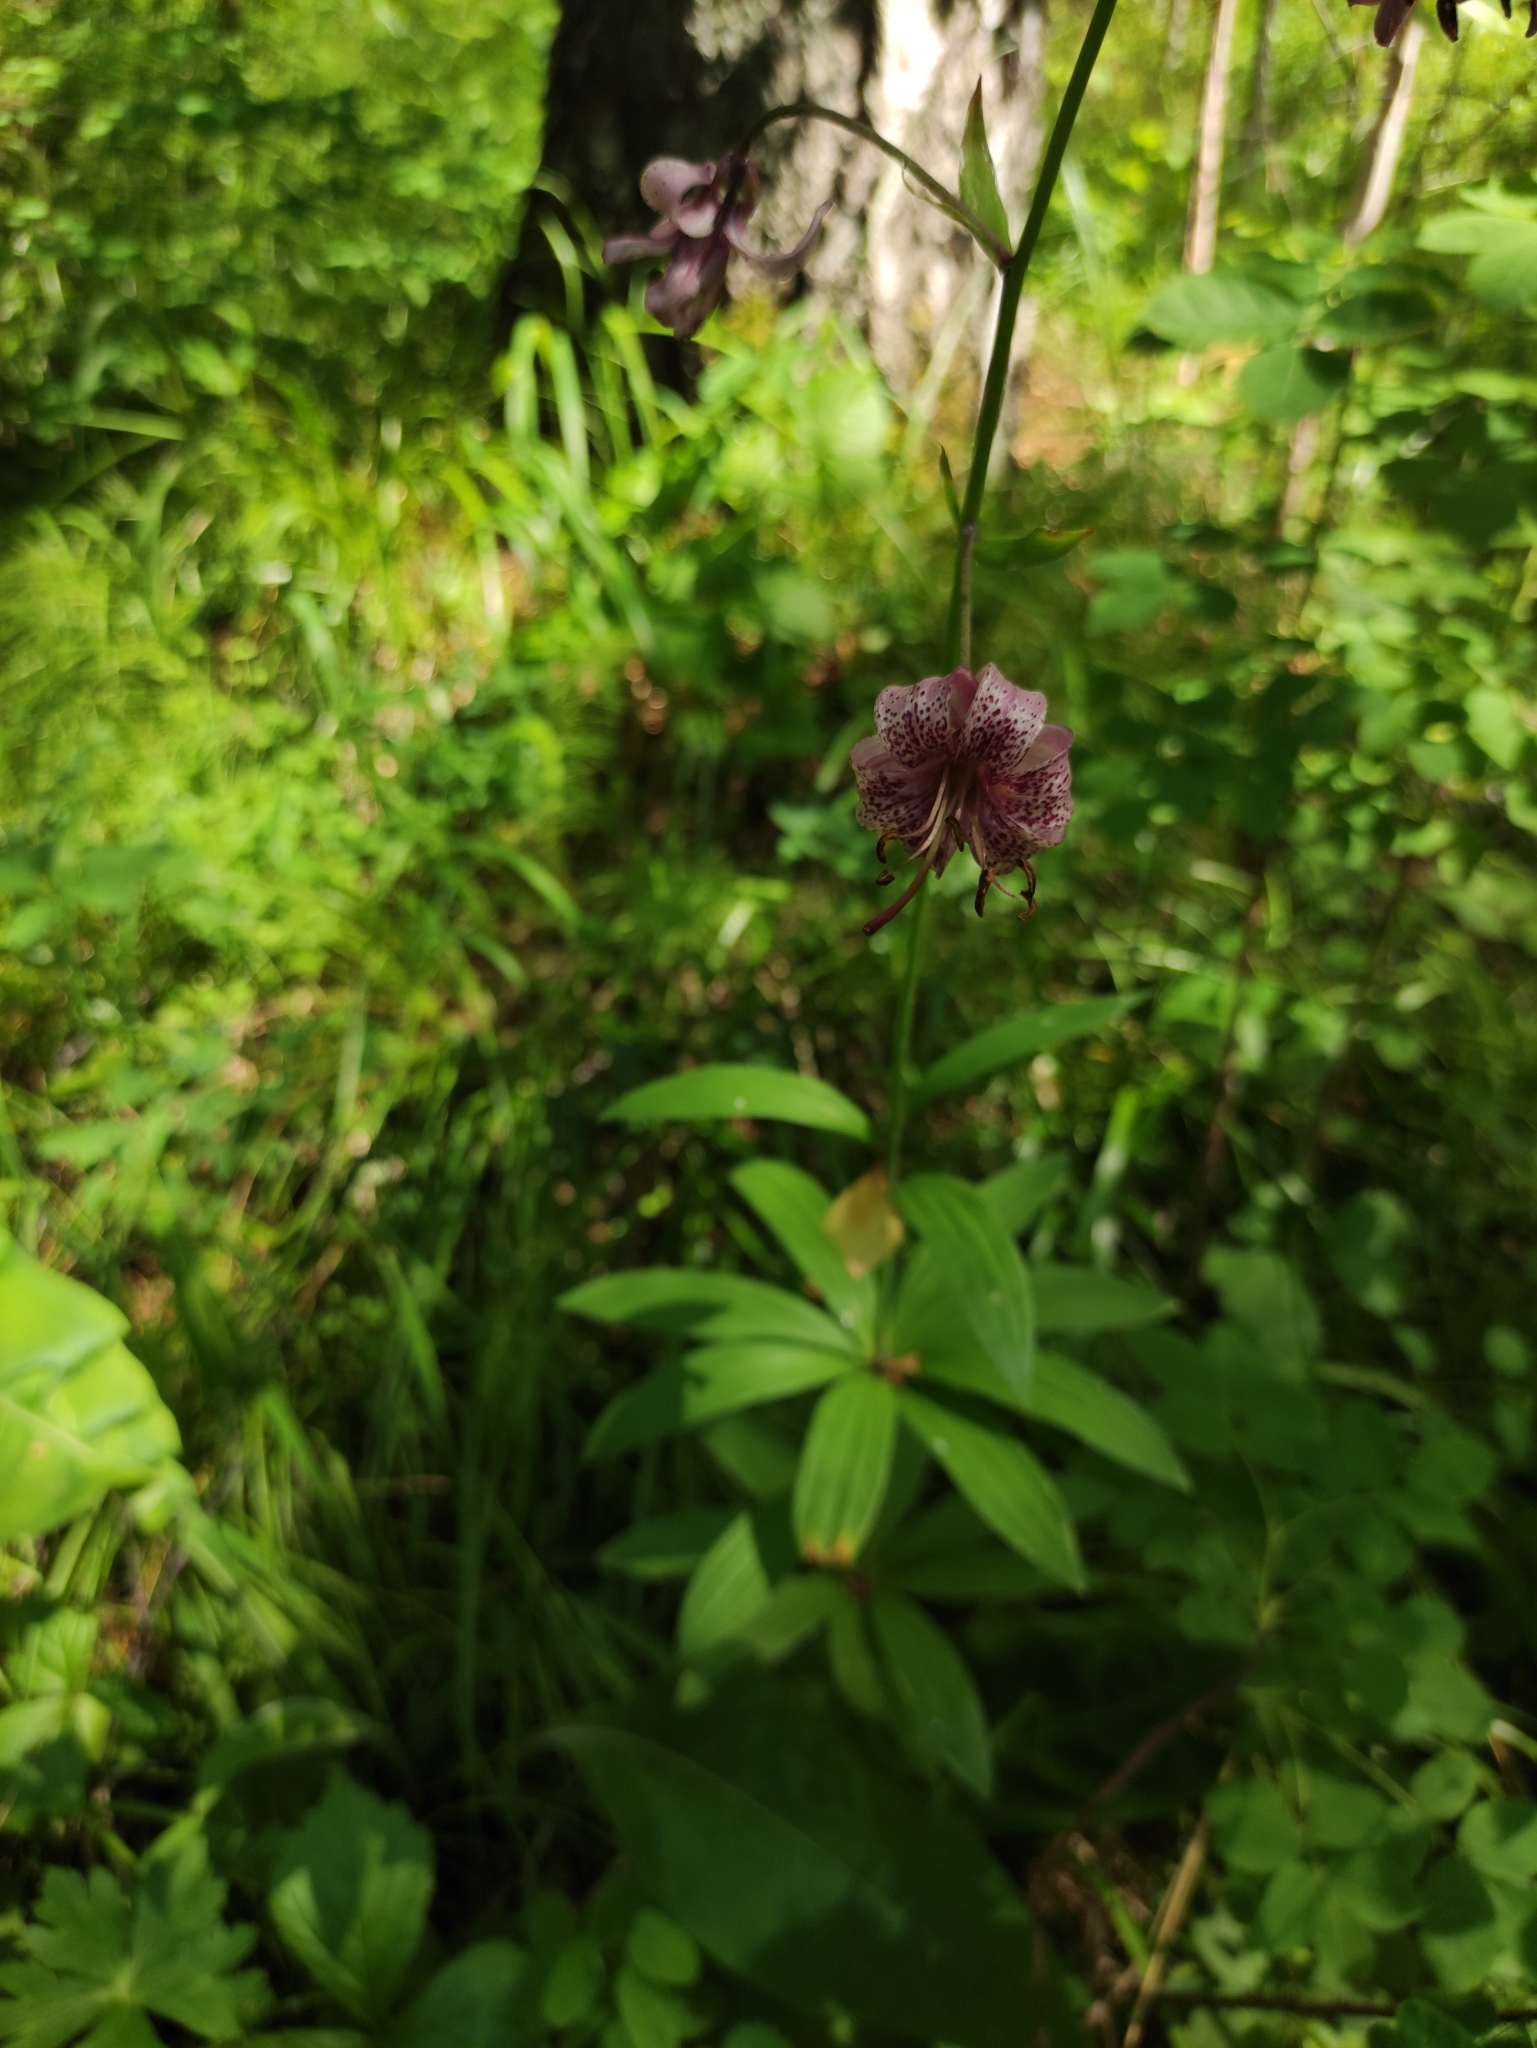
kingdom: Plantae
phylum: Tracheophyta
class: Liliopsida
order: Liliales
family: Liliaceae
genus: Lilium
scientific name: Lilium martagon
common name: Martagon lily
